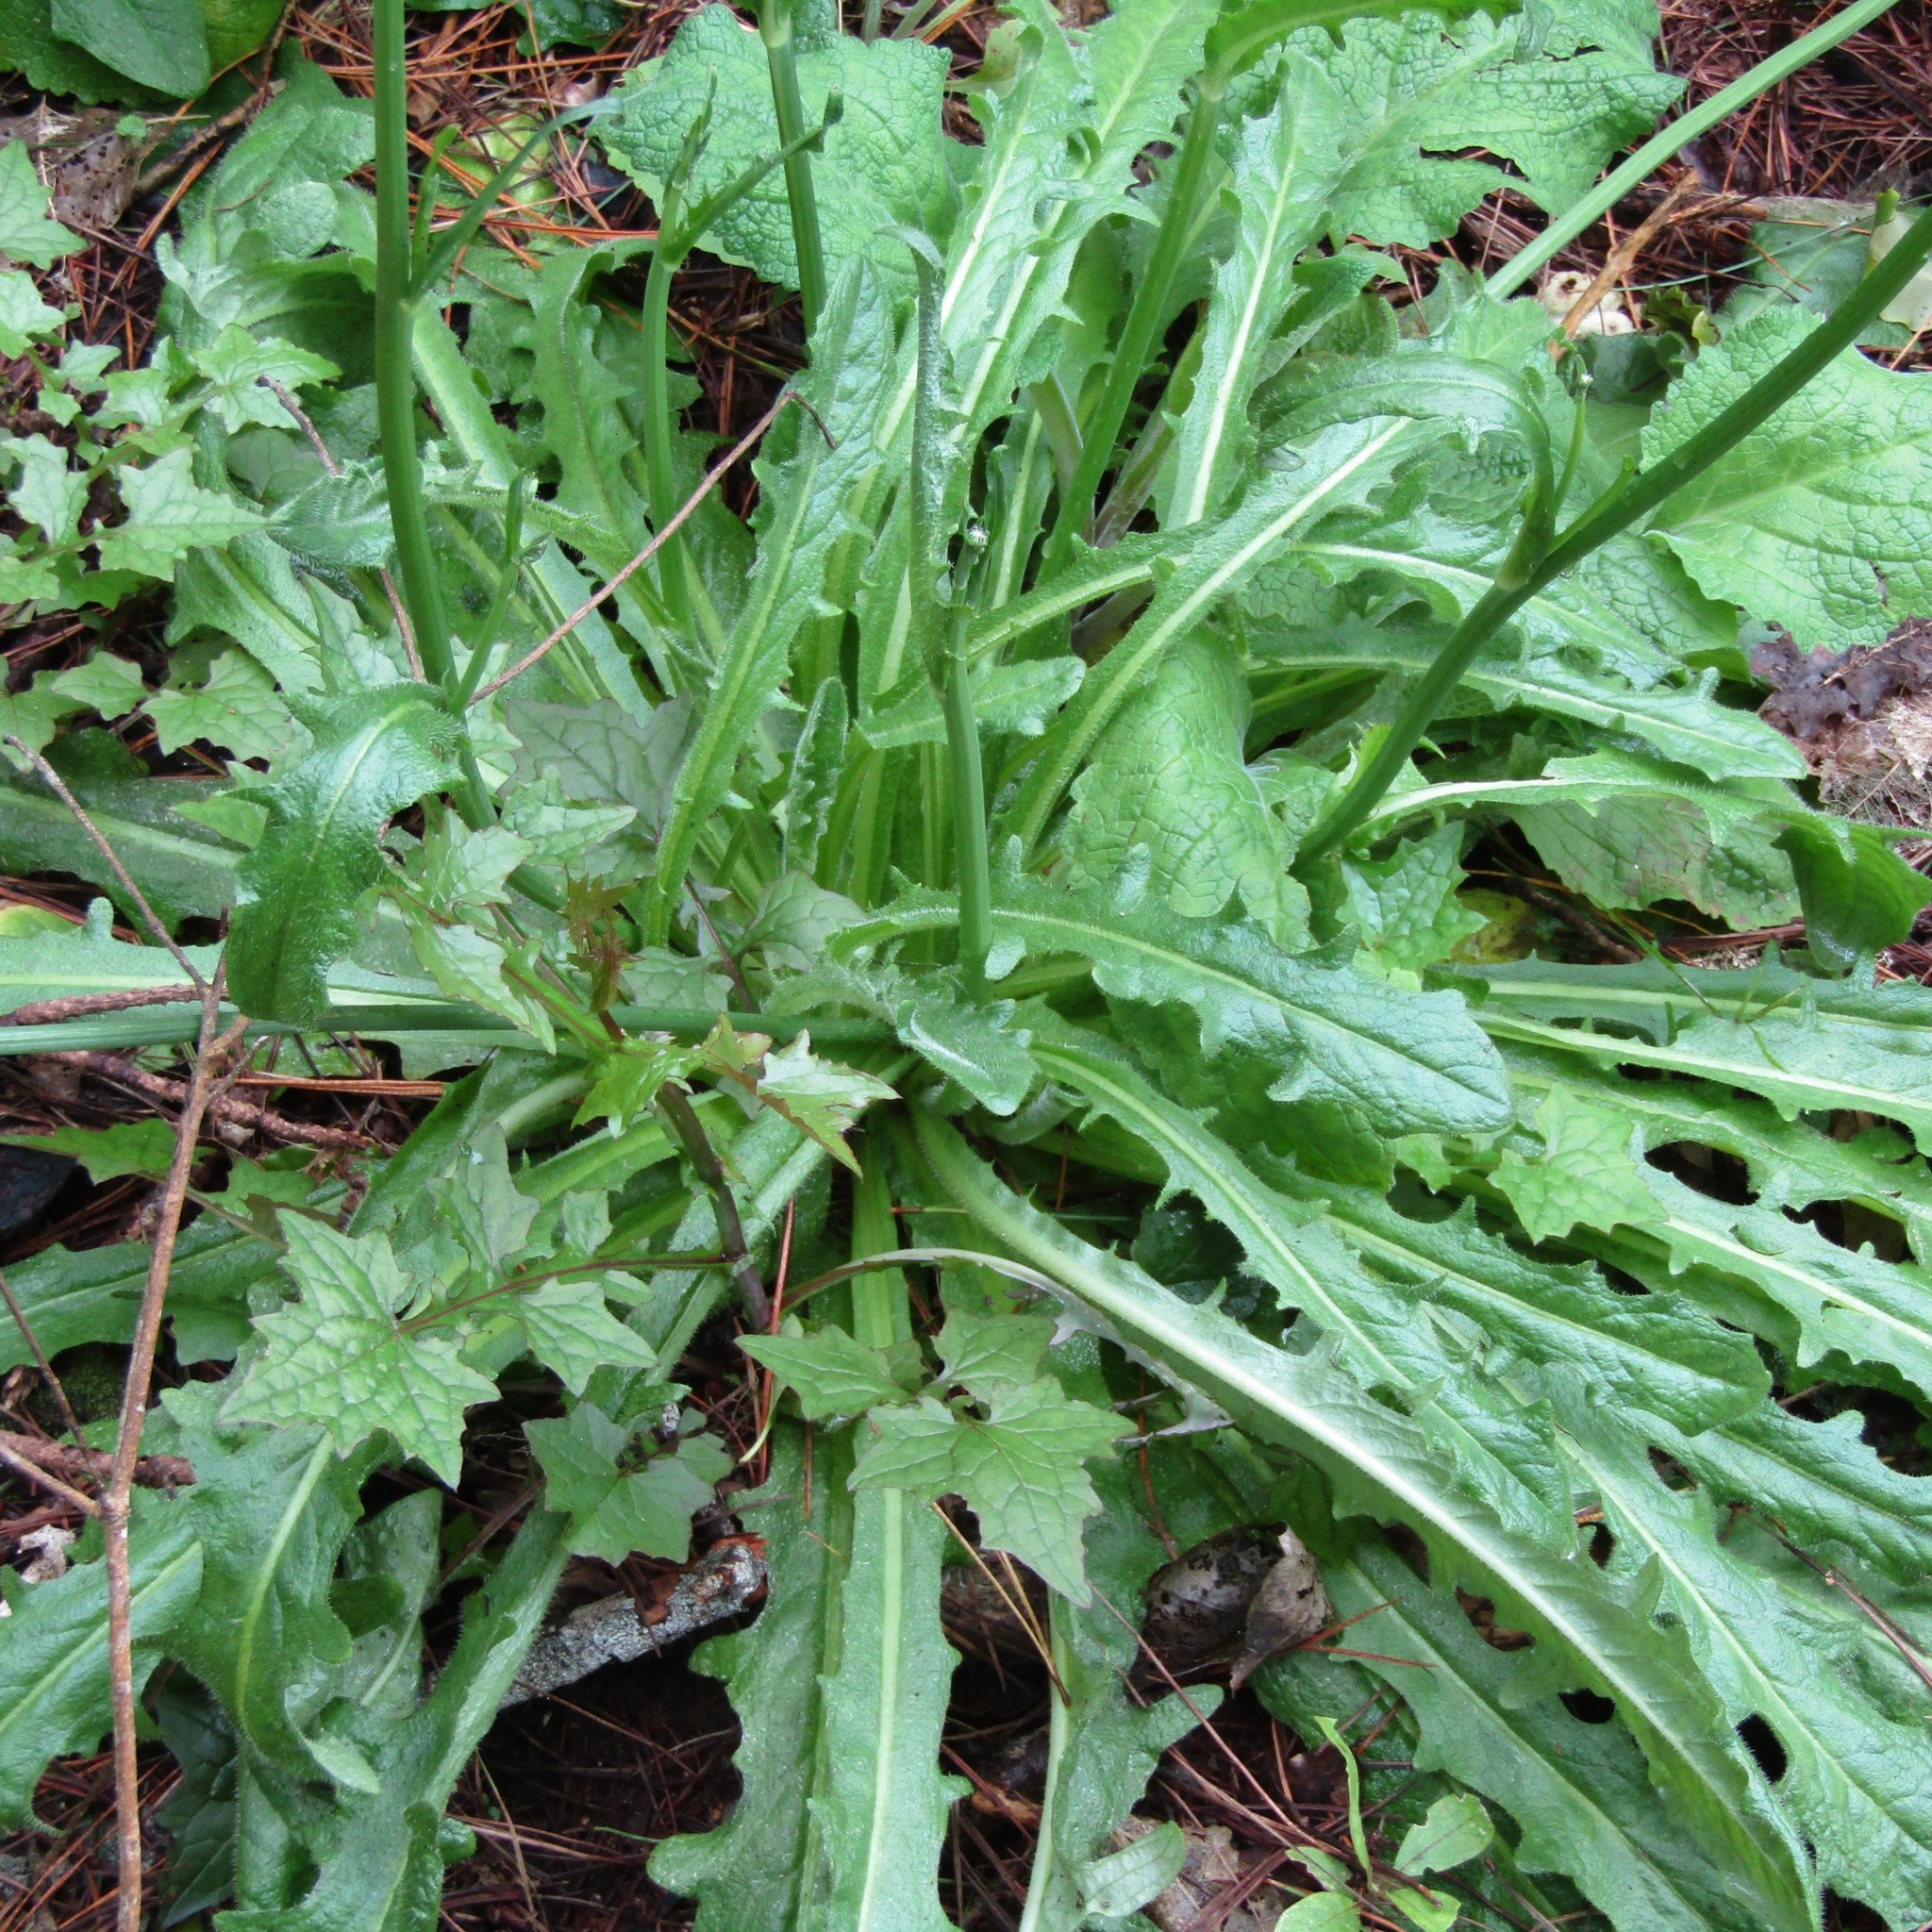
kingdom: Plantae
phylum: Tracheophyta
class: Magnoliopsida
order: Asterales
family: Asteraceae
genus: Hypochaeris
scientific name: Hypochaeris radicata
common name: Flatweed
